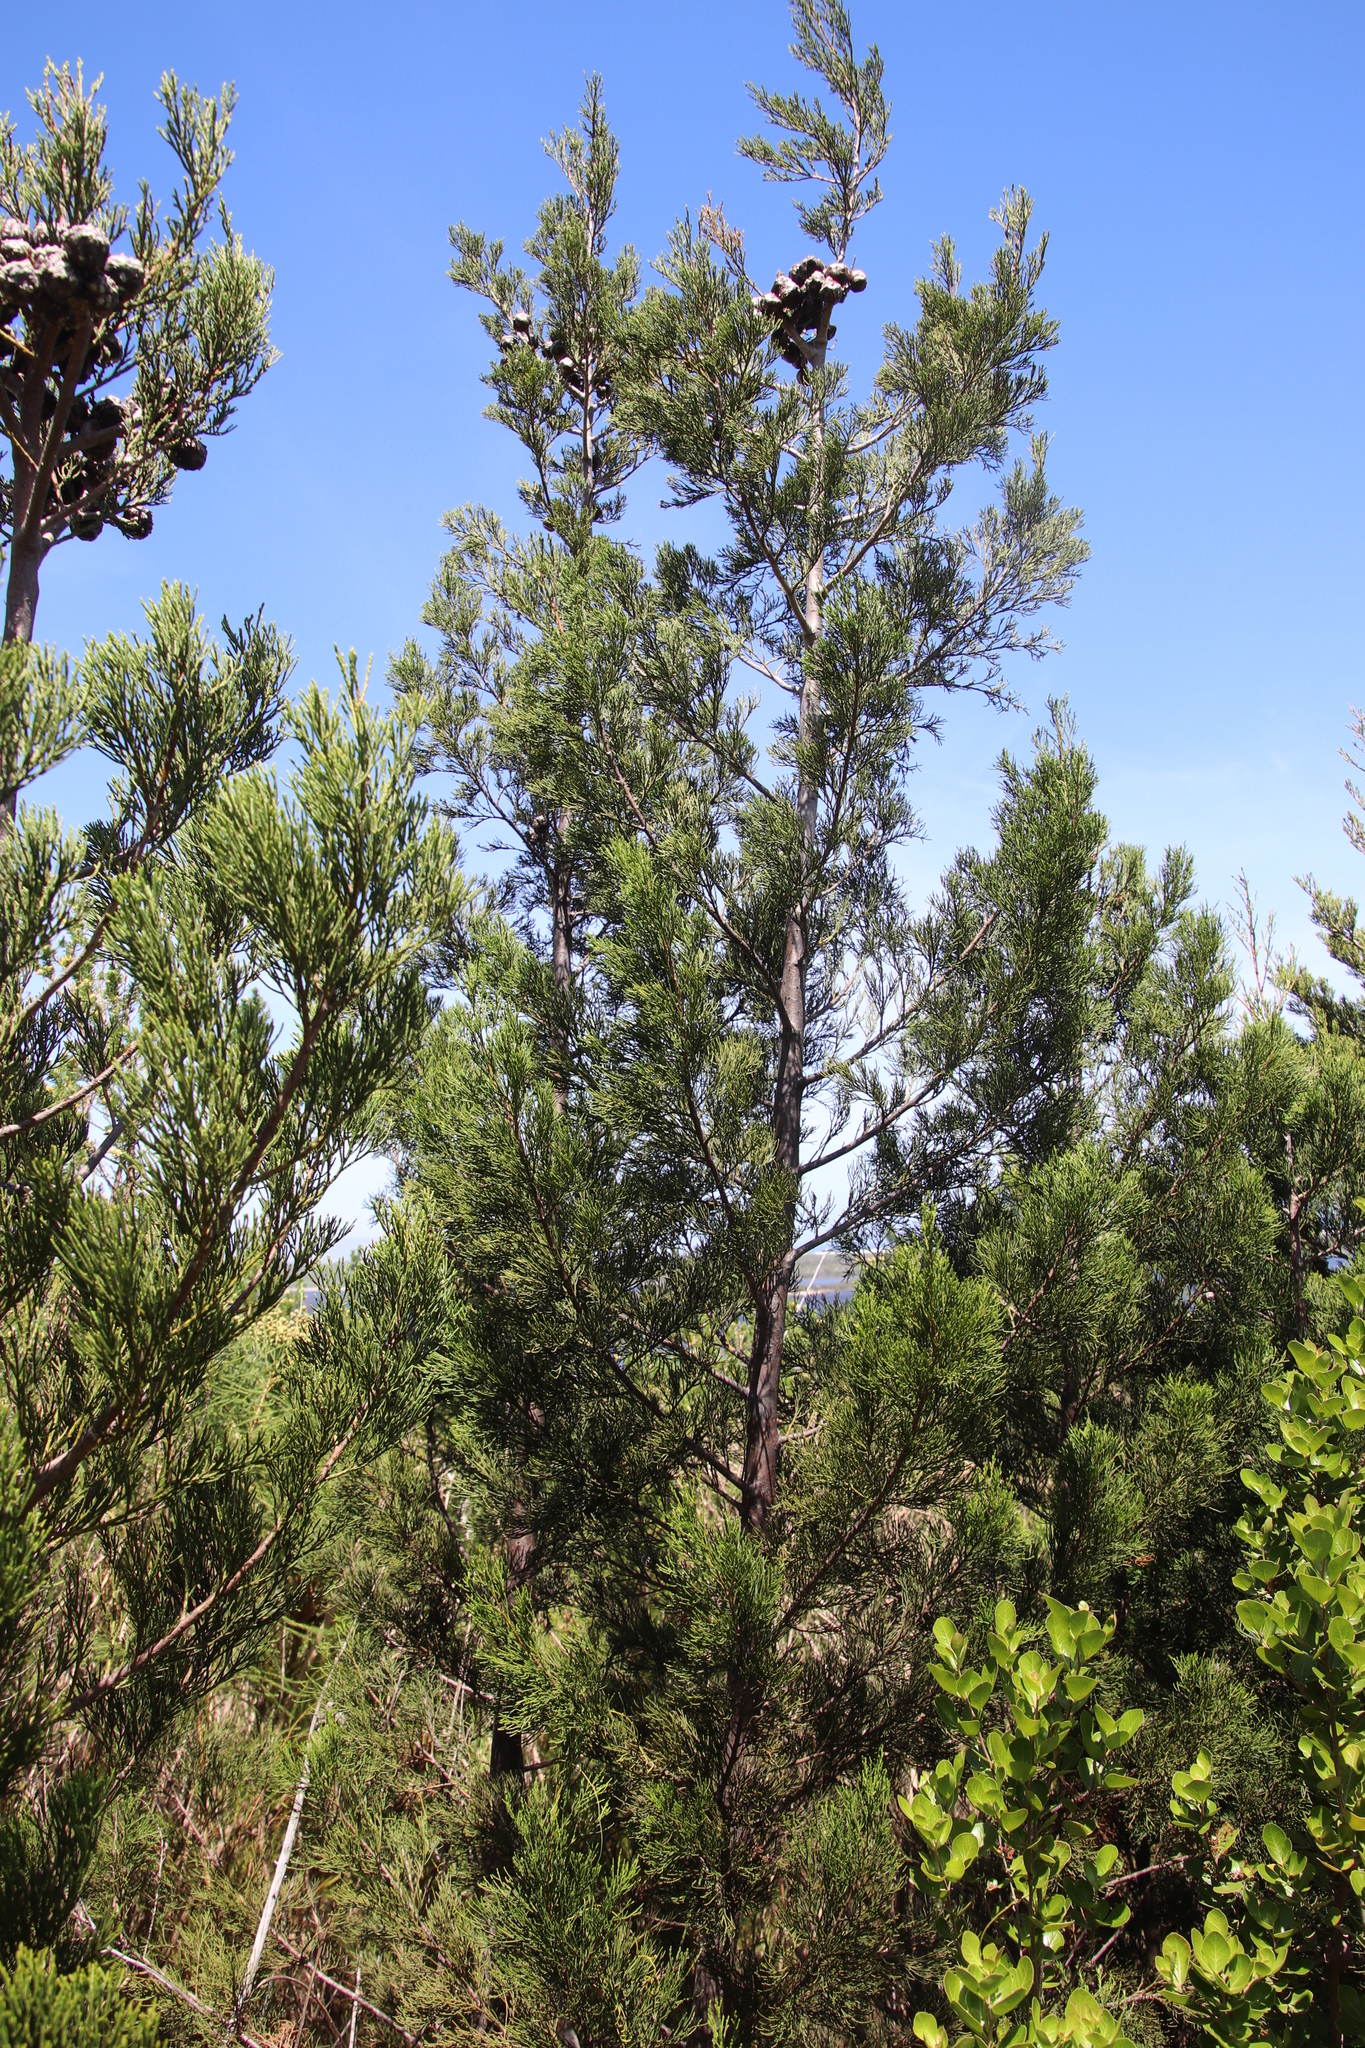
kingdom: Plantae
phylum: Tracheophyta
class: Pinopsida
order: Pinales
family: Cupressaceae
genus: Widdringtonia
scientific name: Widdringtonia nodiflora
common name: Cape cypress
